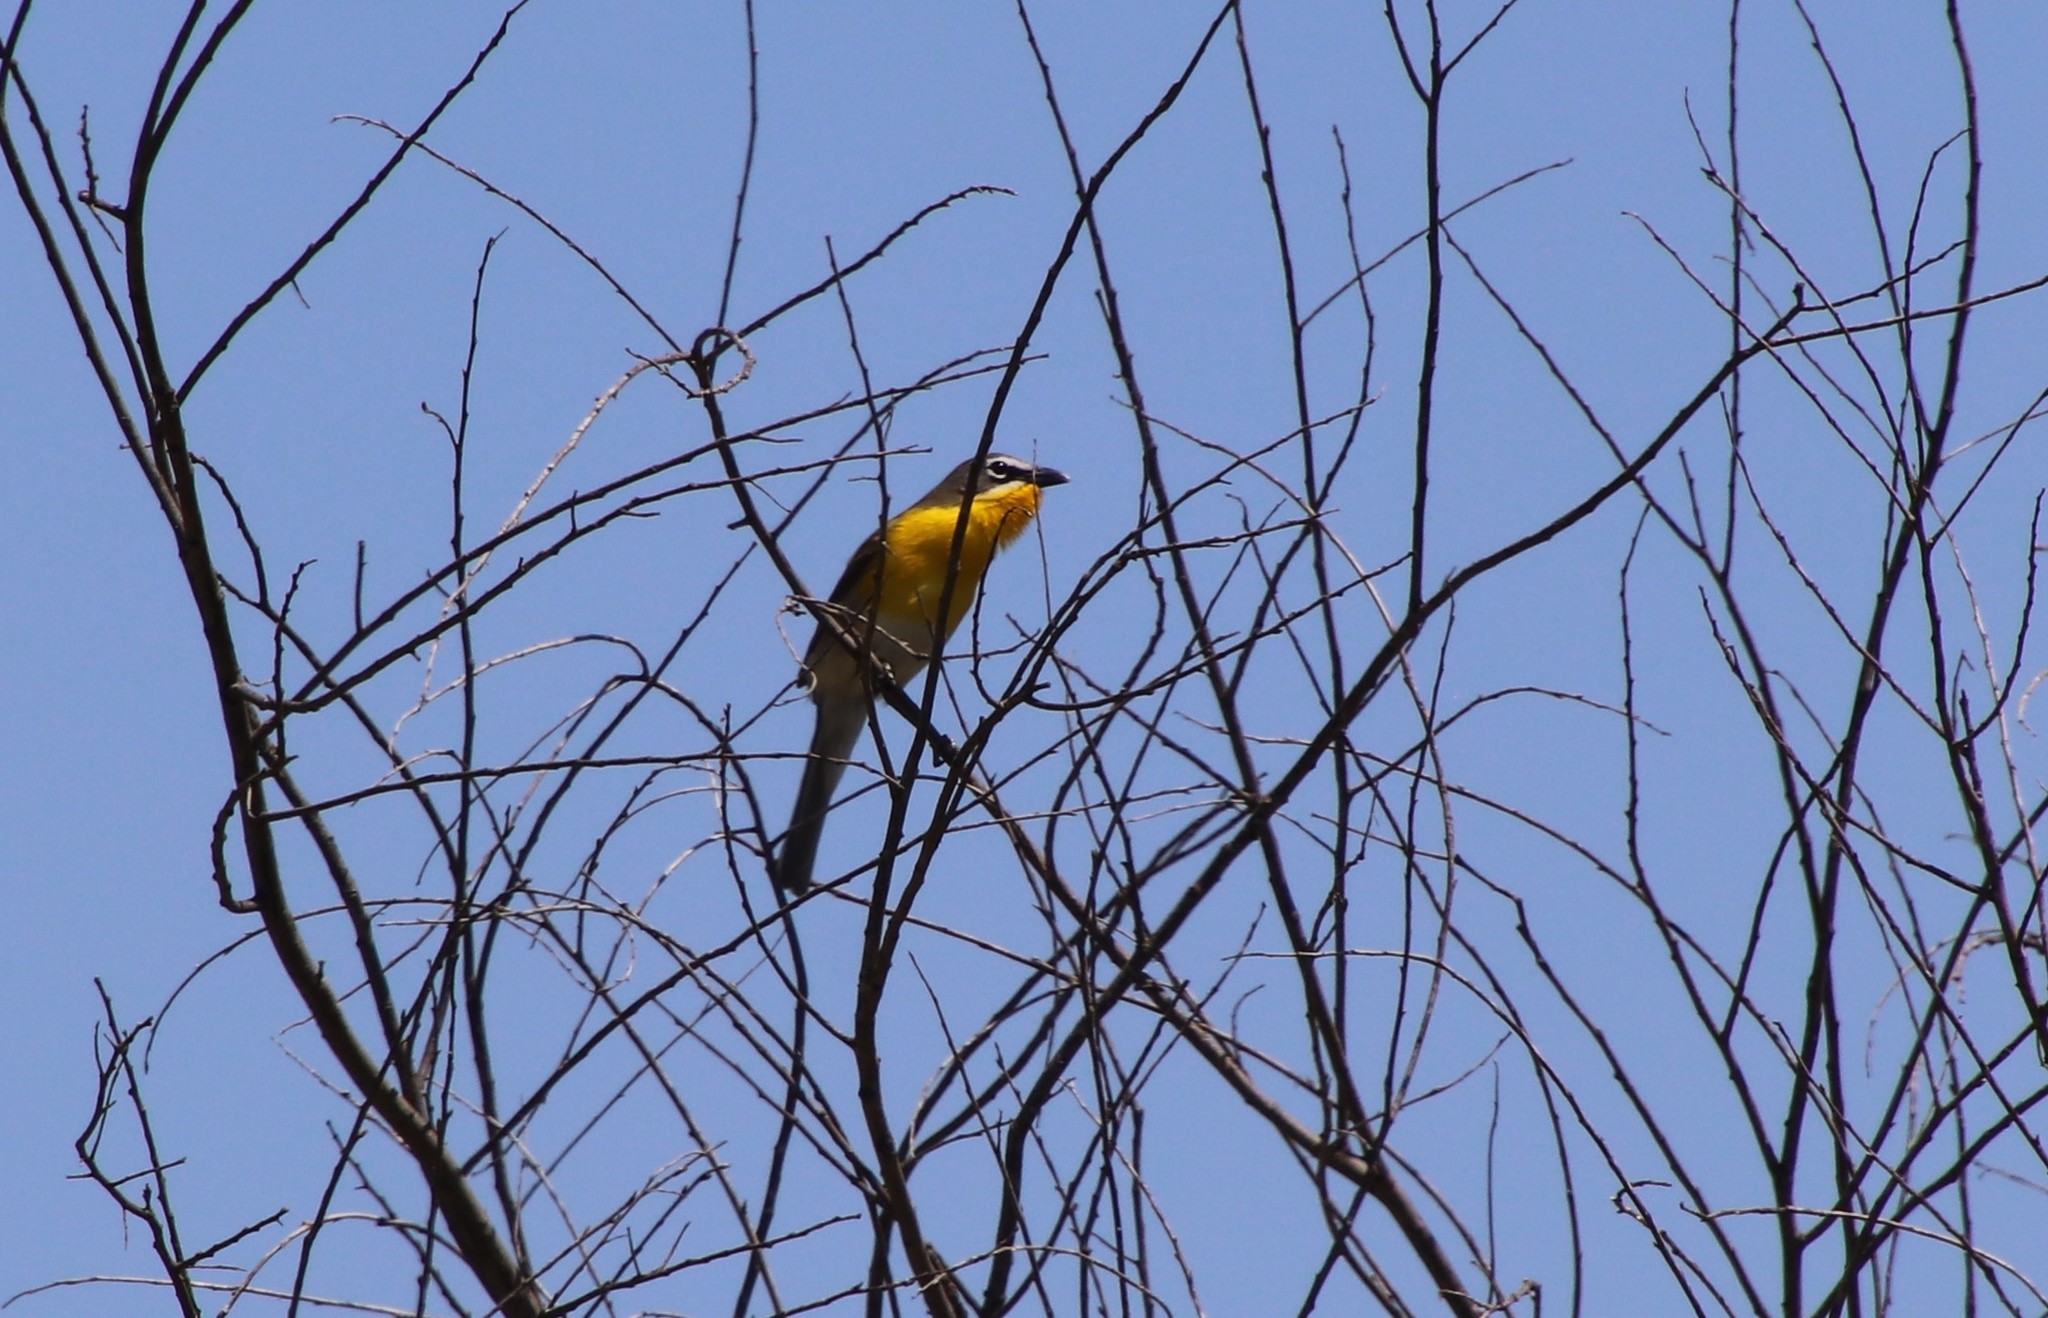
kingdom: Animalia
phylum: Chordata
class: Aves
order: Passeriformes
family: Parulidae
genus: Icteria
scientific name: Icteria virens
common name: Yellow-breasted chat
